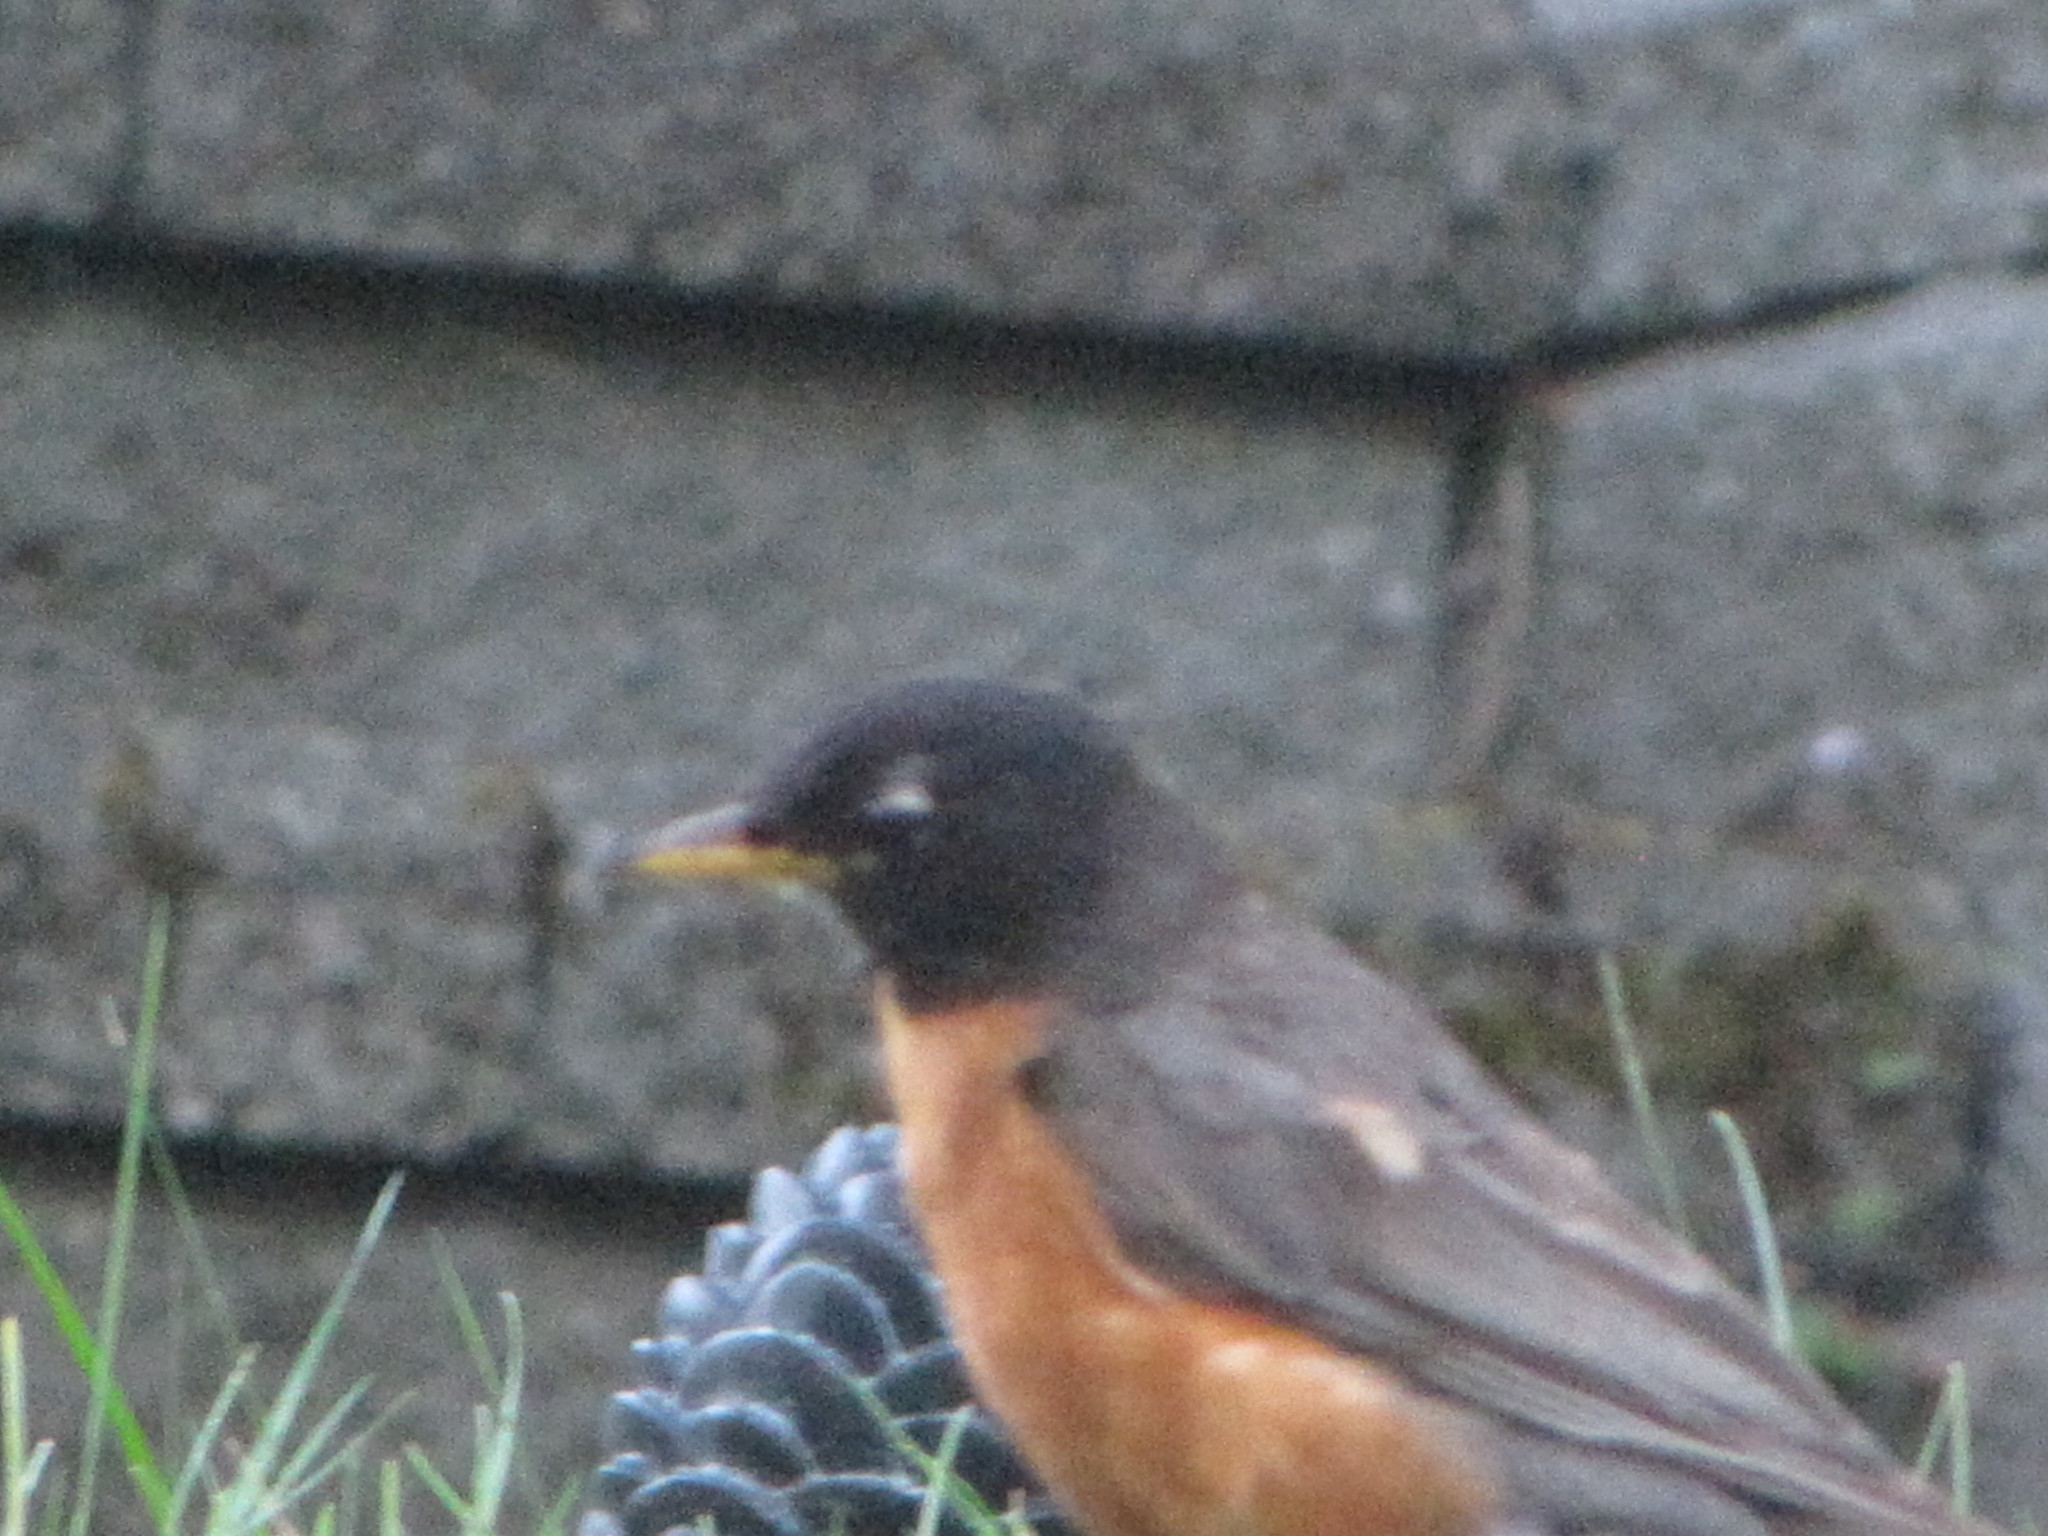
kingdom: Animalia
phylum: Chordata
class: Aves
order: Passeriformes
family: Turdidae
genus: Turdus
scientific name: Turdus migratorius
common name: American robin
